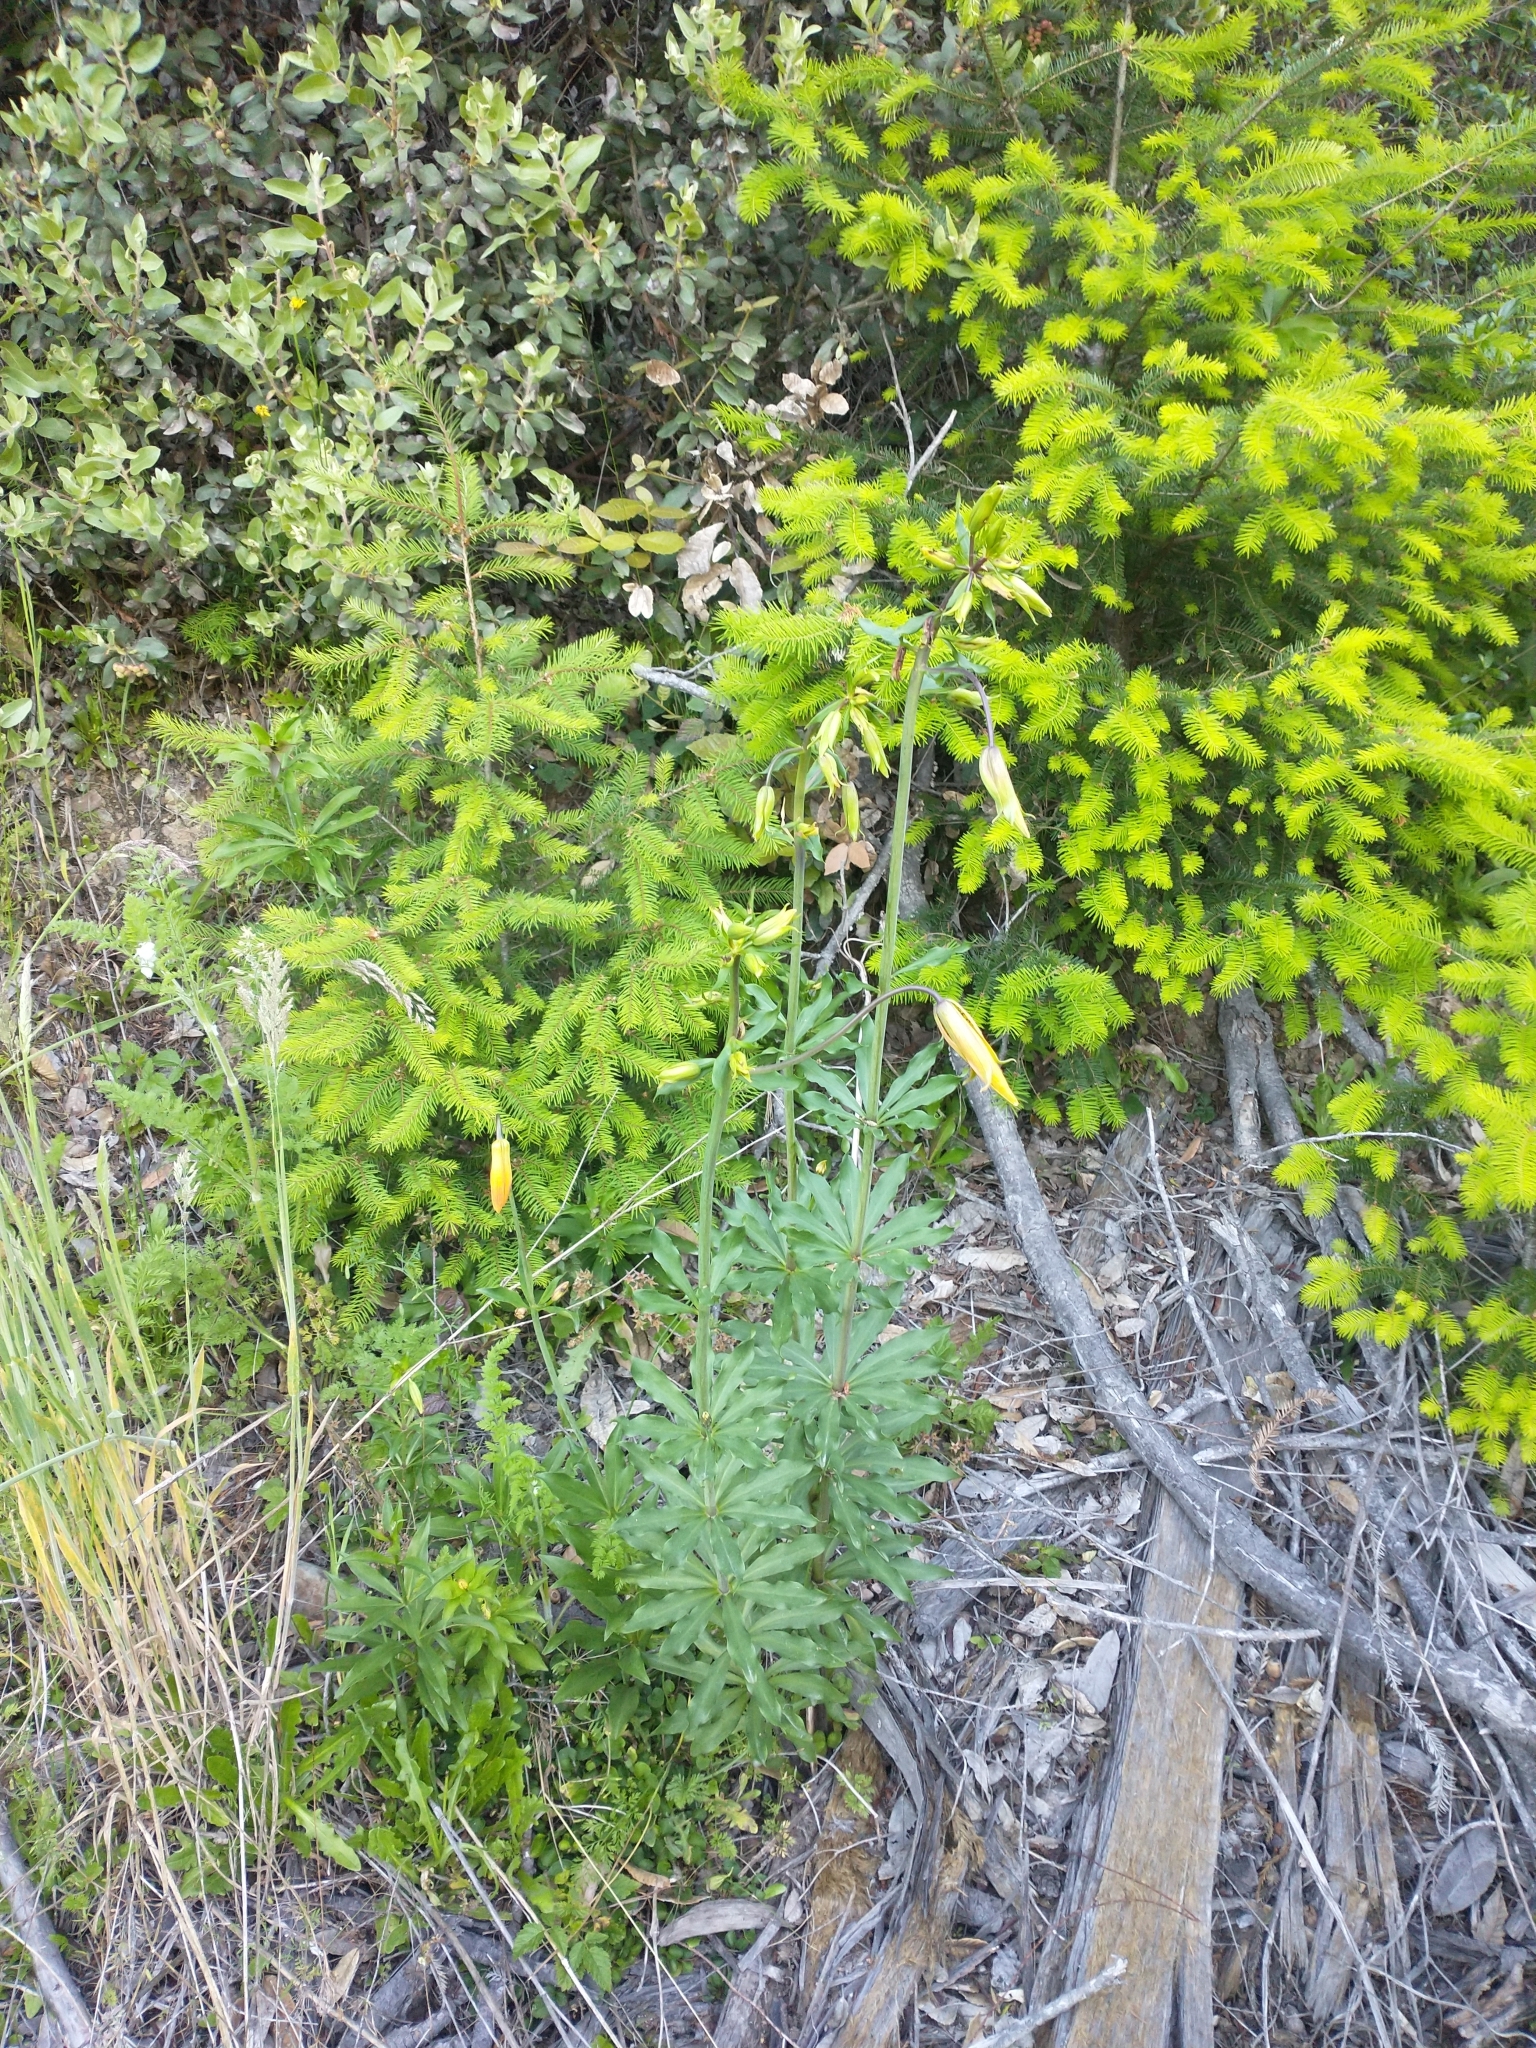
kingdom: Plantae
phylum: Tracheophyta
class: Liliopsida
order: Liliales
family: Liliaceae
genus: Lilium
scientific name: Lilium columbianum
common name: Columbia lily
